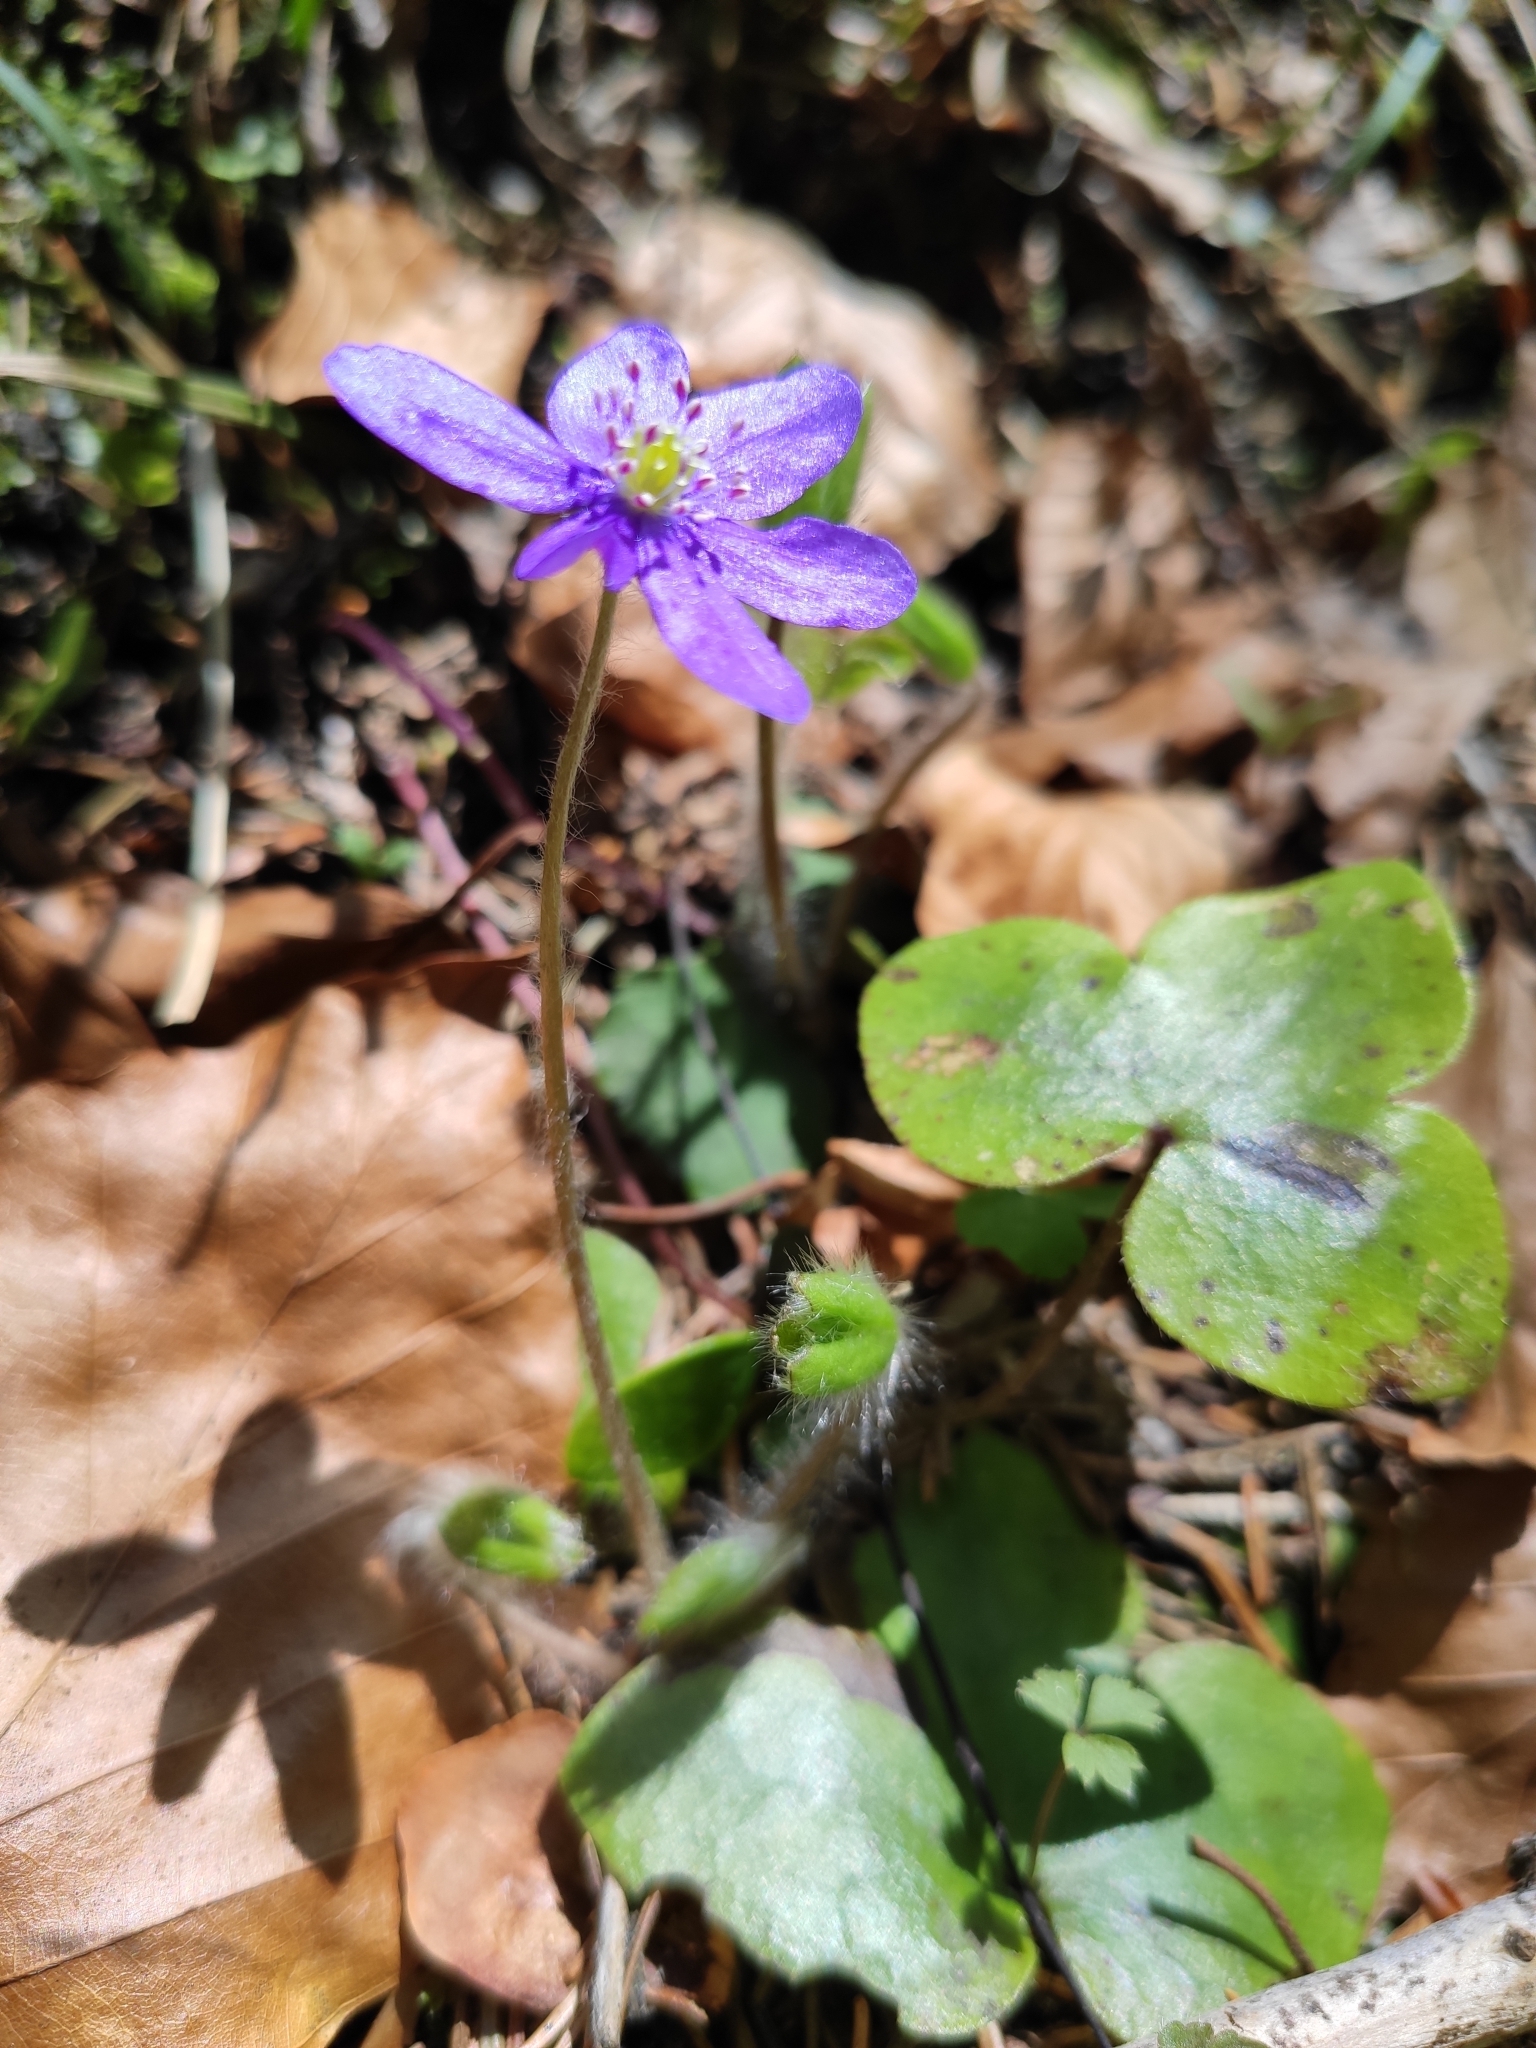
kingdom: Plantae
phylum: Tracheophyta
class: Magnoliopsida
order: Ranunculales
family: Ranunculaceae
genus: Hepatica
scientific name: Hepatica nobilis
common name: Liverleaf
